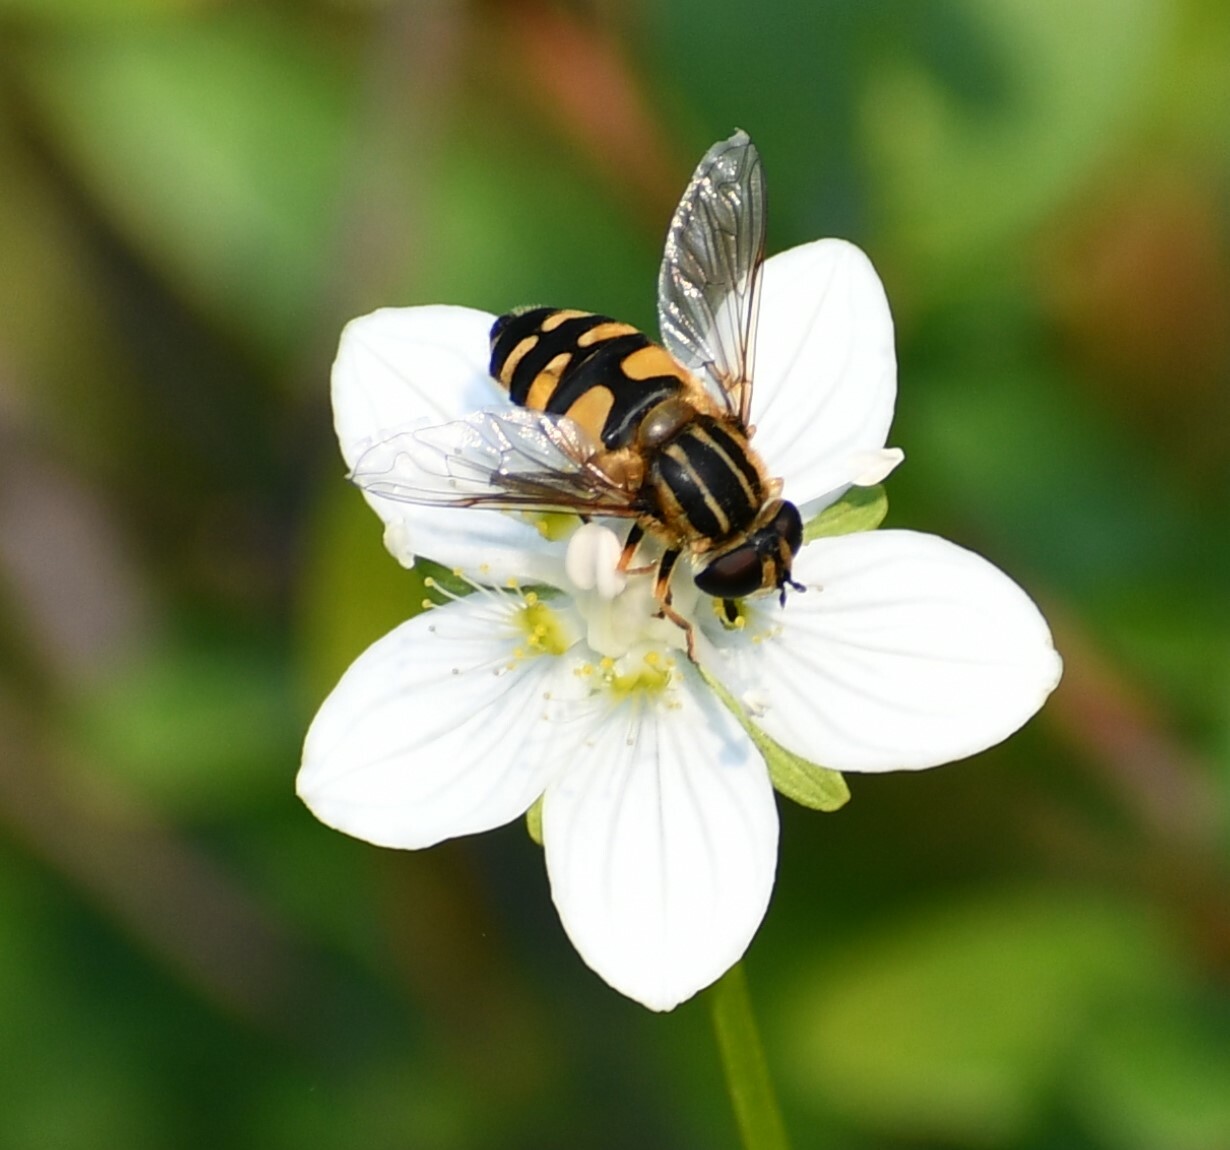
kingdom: Animalia
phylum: Arthropoda
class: Insecta
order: Diptera
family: Syrphidae
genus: Helophilus
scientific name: Helophilus neoaffinis
